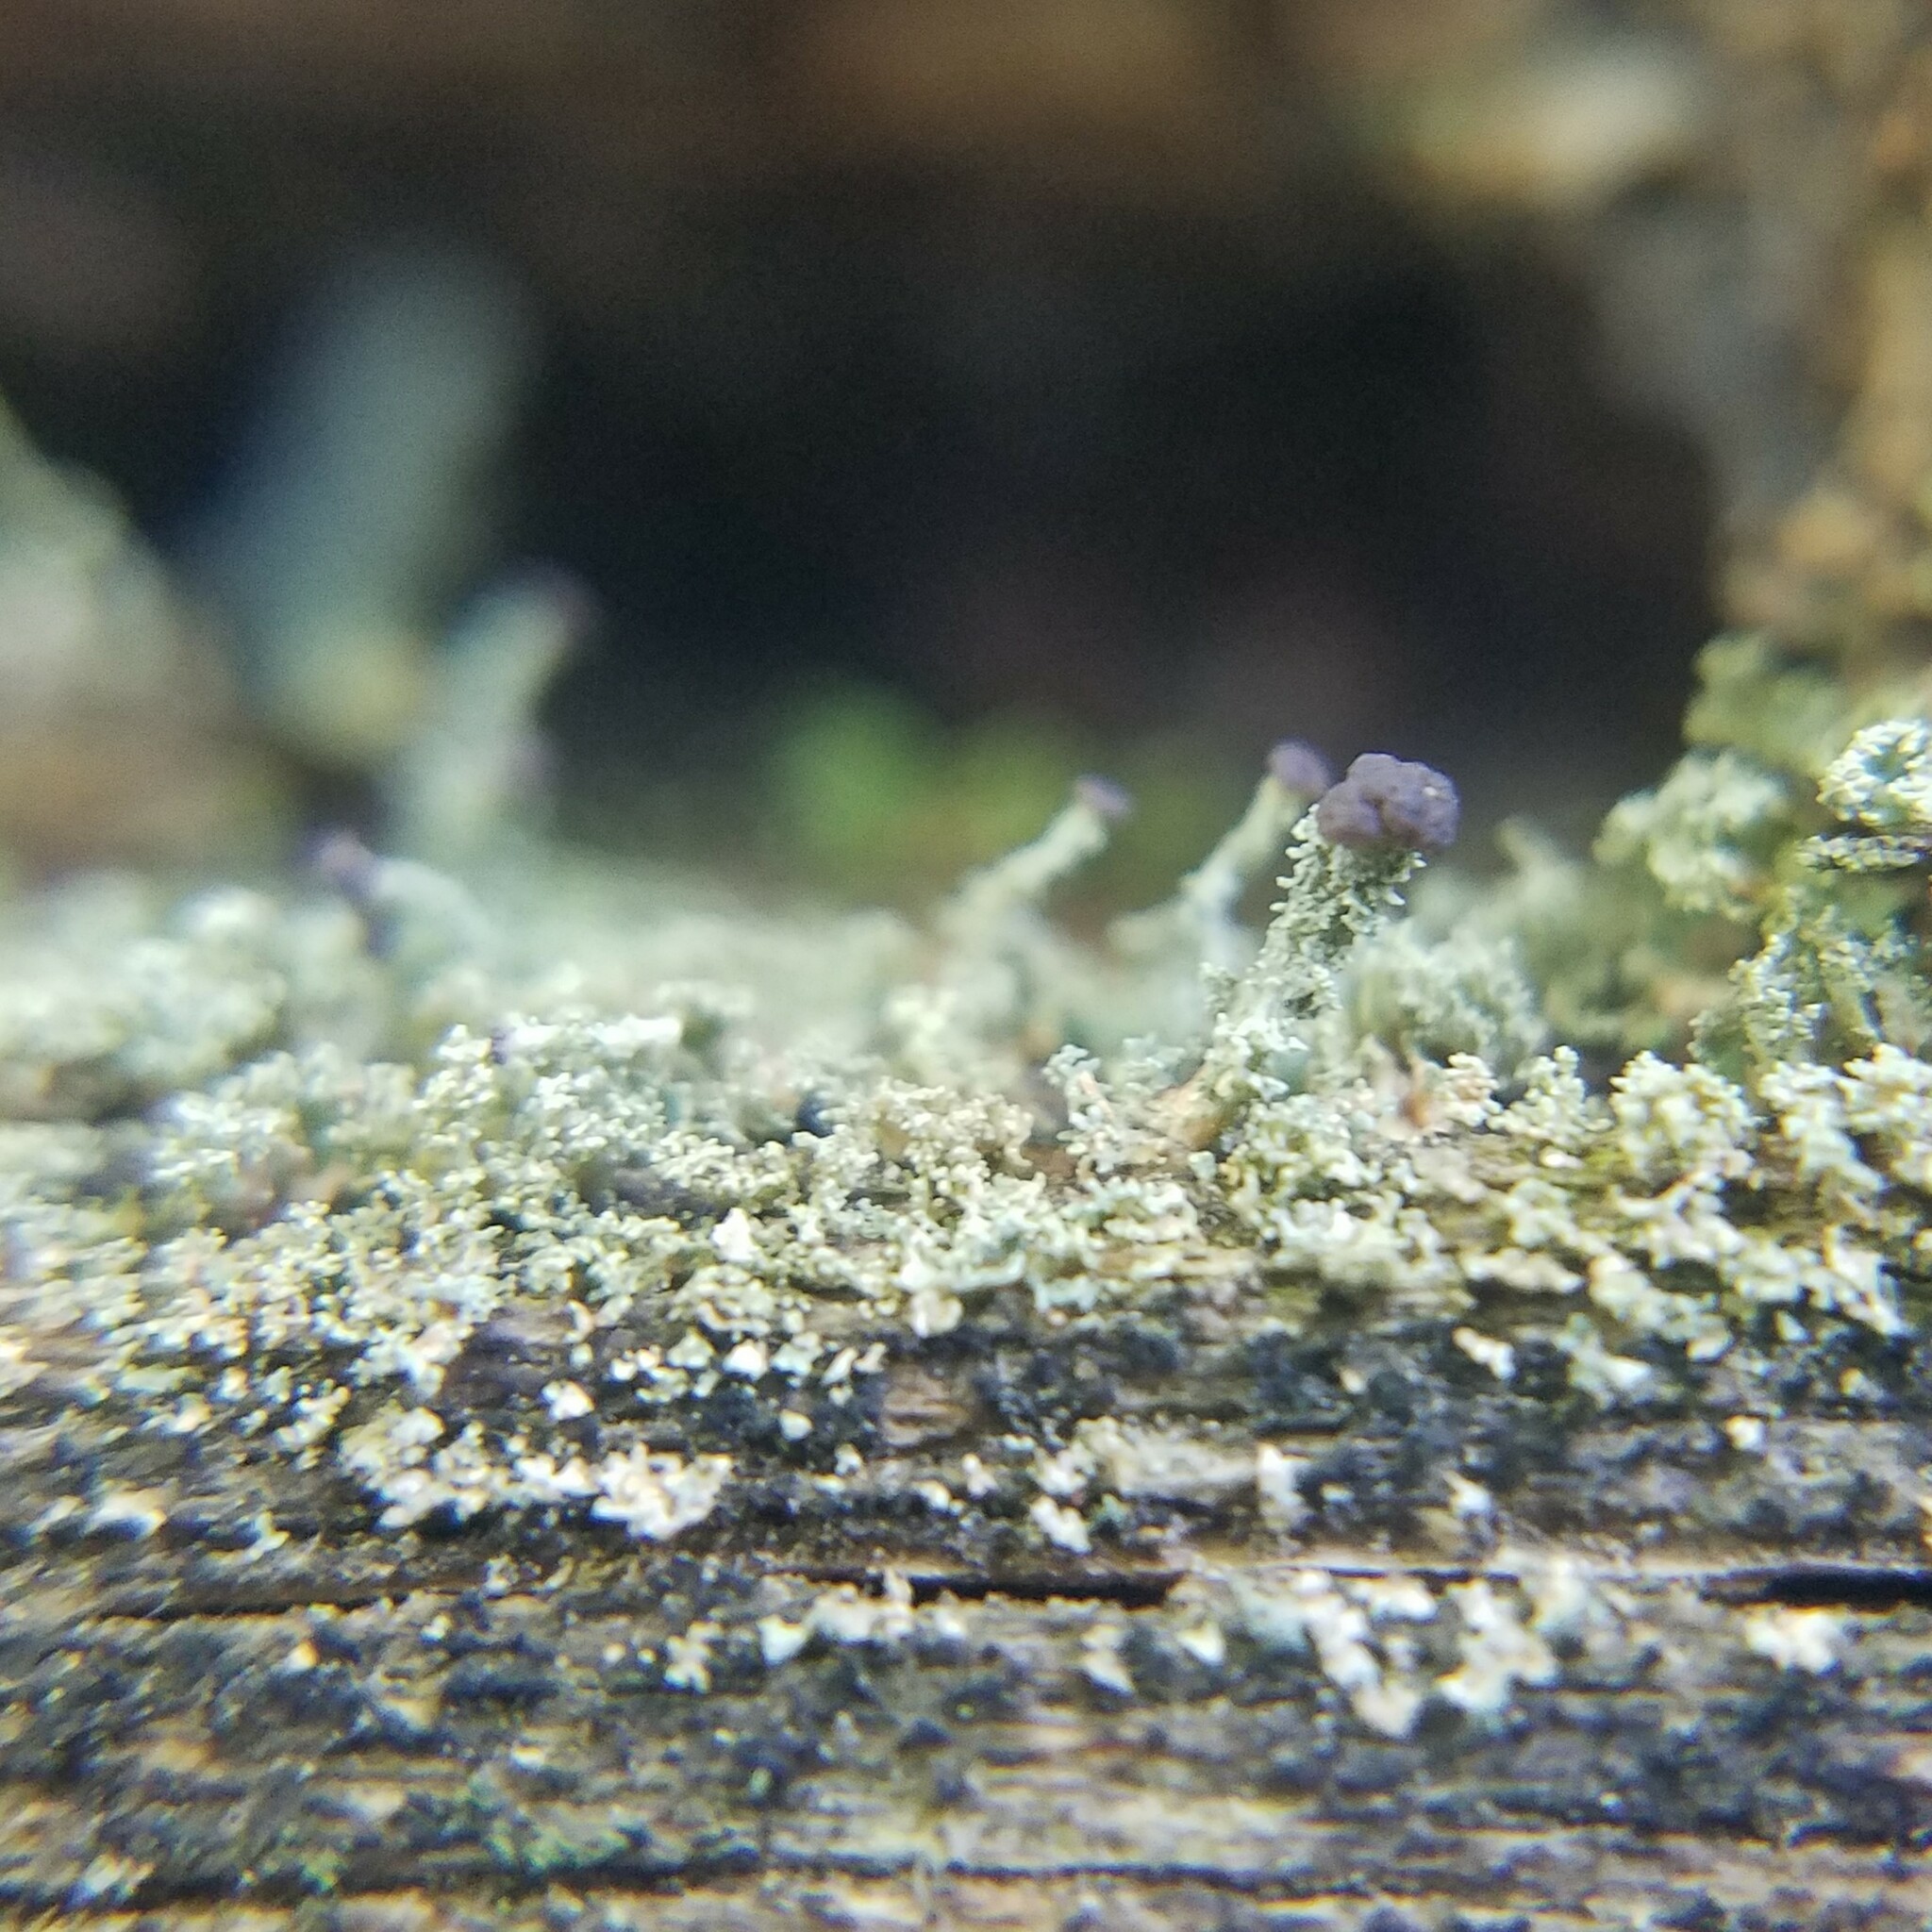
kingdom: Fungi
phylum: Ascomycota
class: Lecanoromycetes
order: Lecanorales
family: Cladoniaceae
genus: Cladonia
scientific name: Cladonia parasitica
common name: Fence-rail clad lichen
